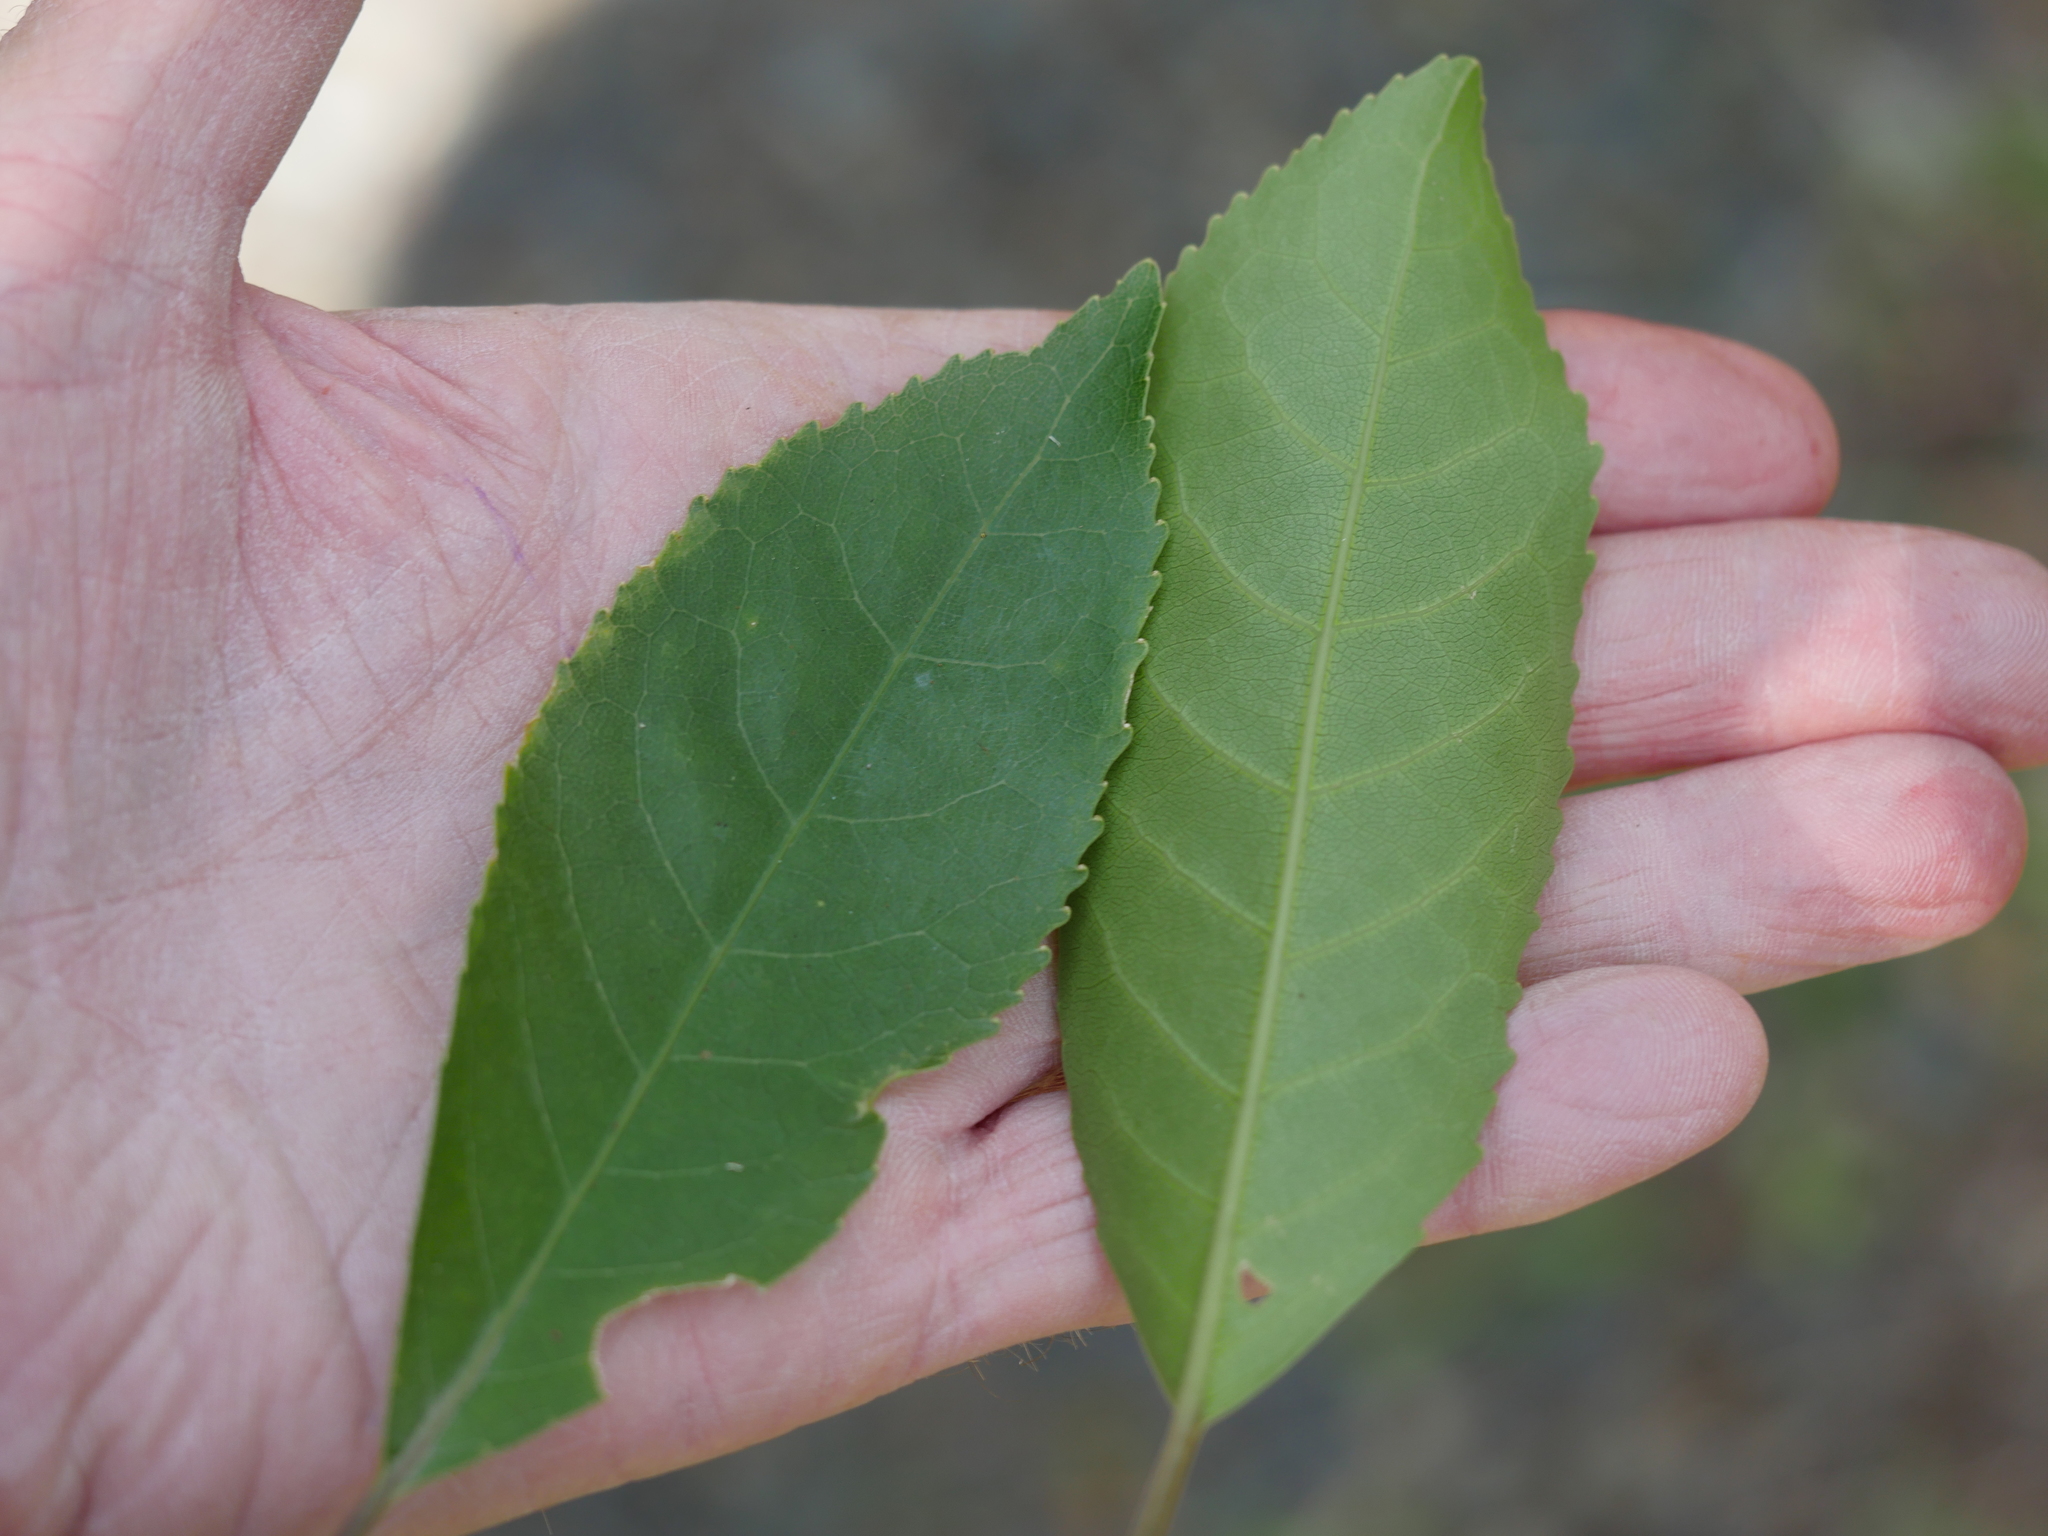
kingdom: Plantae
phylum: Tracheophyta
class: Magnoliopsida
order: Malpighiales
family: Violaceae
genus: Melicytus
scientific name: Melicytus ramiflorus
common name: Mahoe
